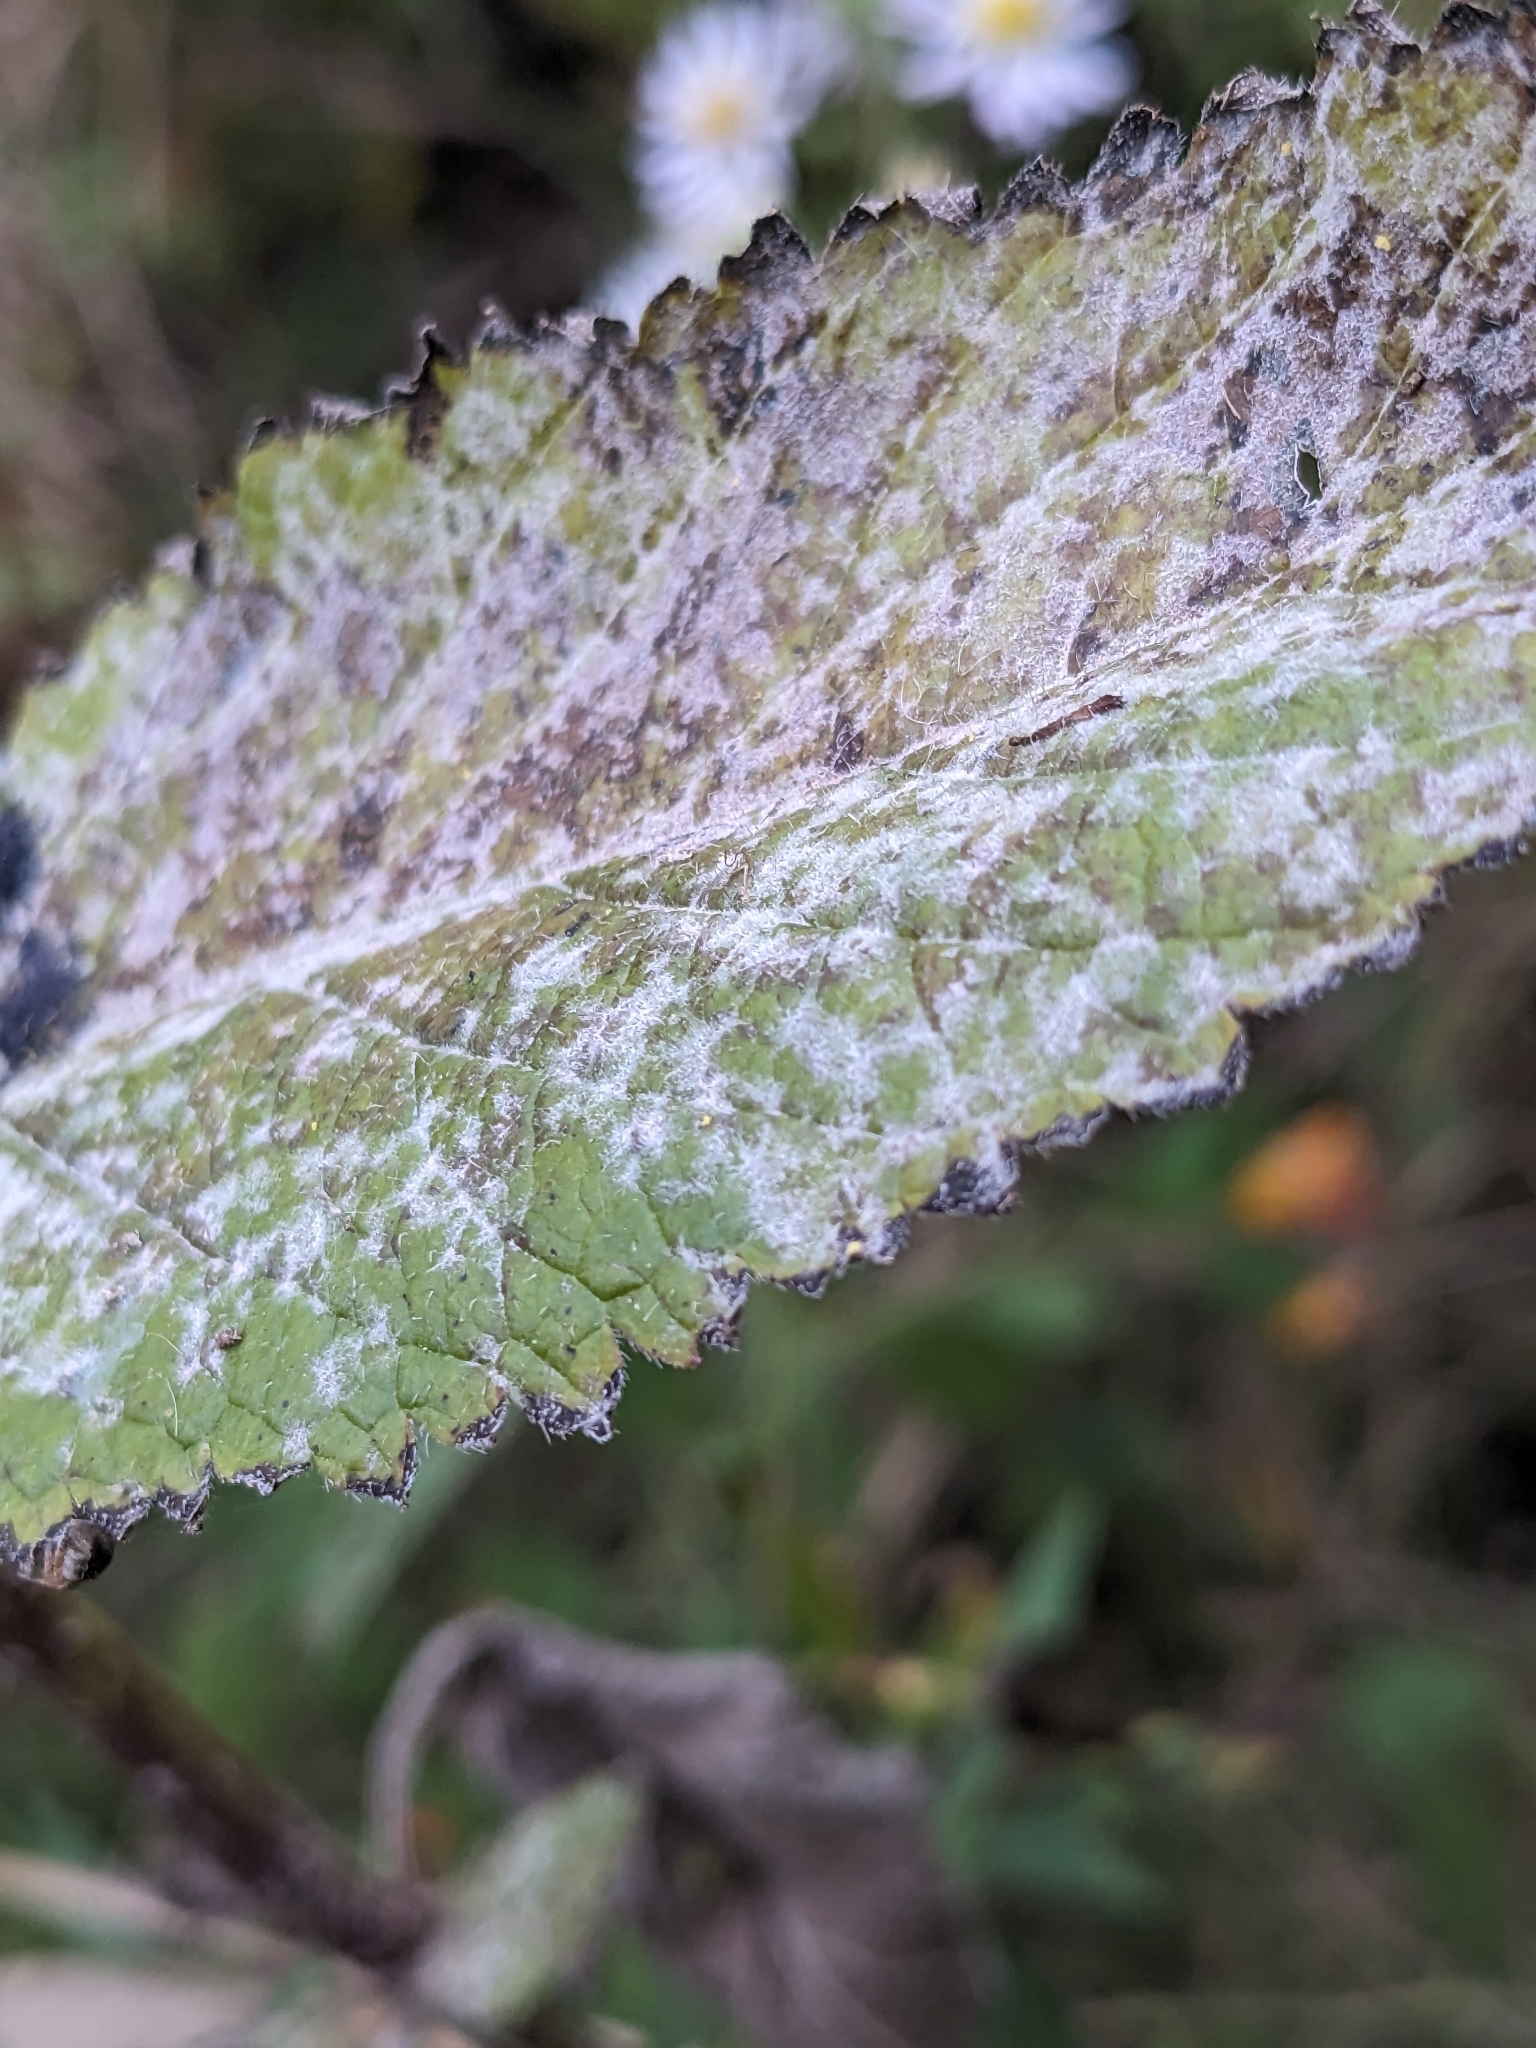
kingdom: Fungi
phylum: Ascomycota
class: Leotiomycetes
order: Helotiales
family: Erysiphaceae
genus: Golovinomyces
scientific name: Golovinomyces verbenae
